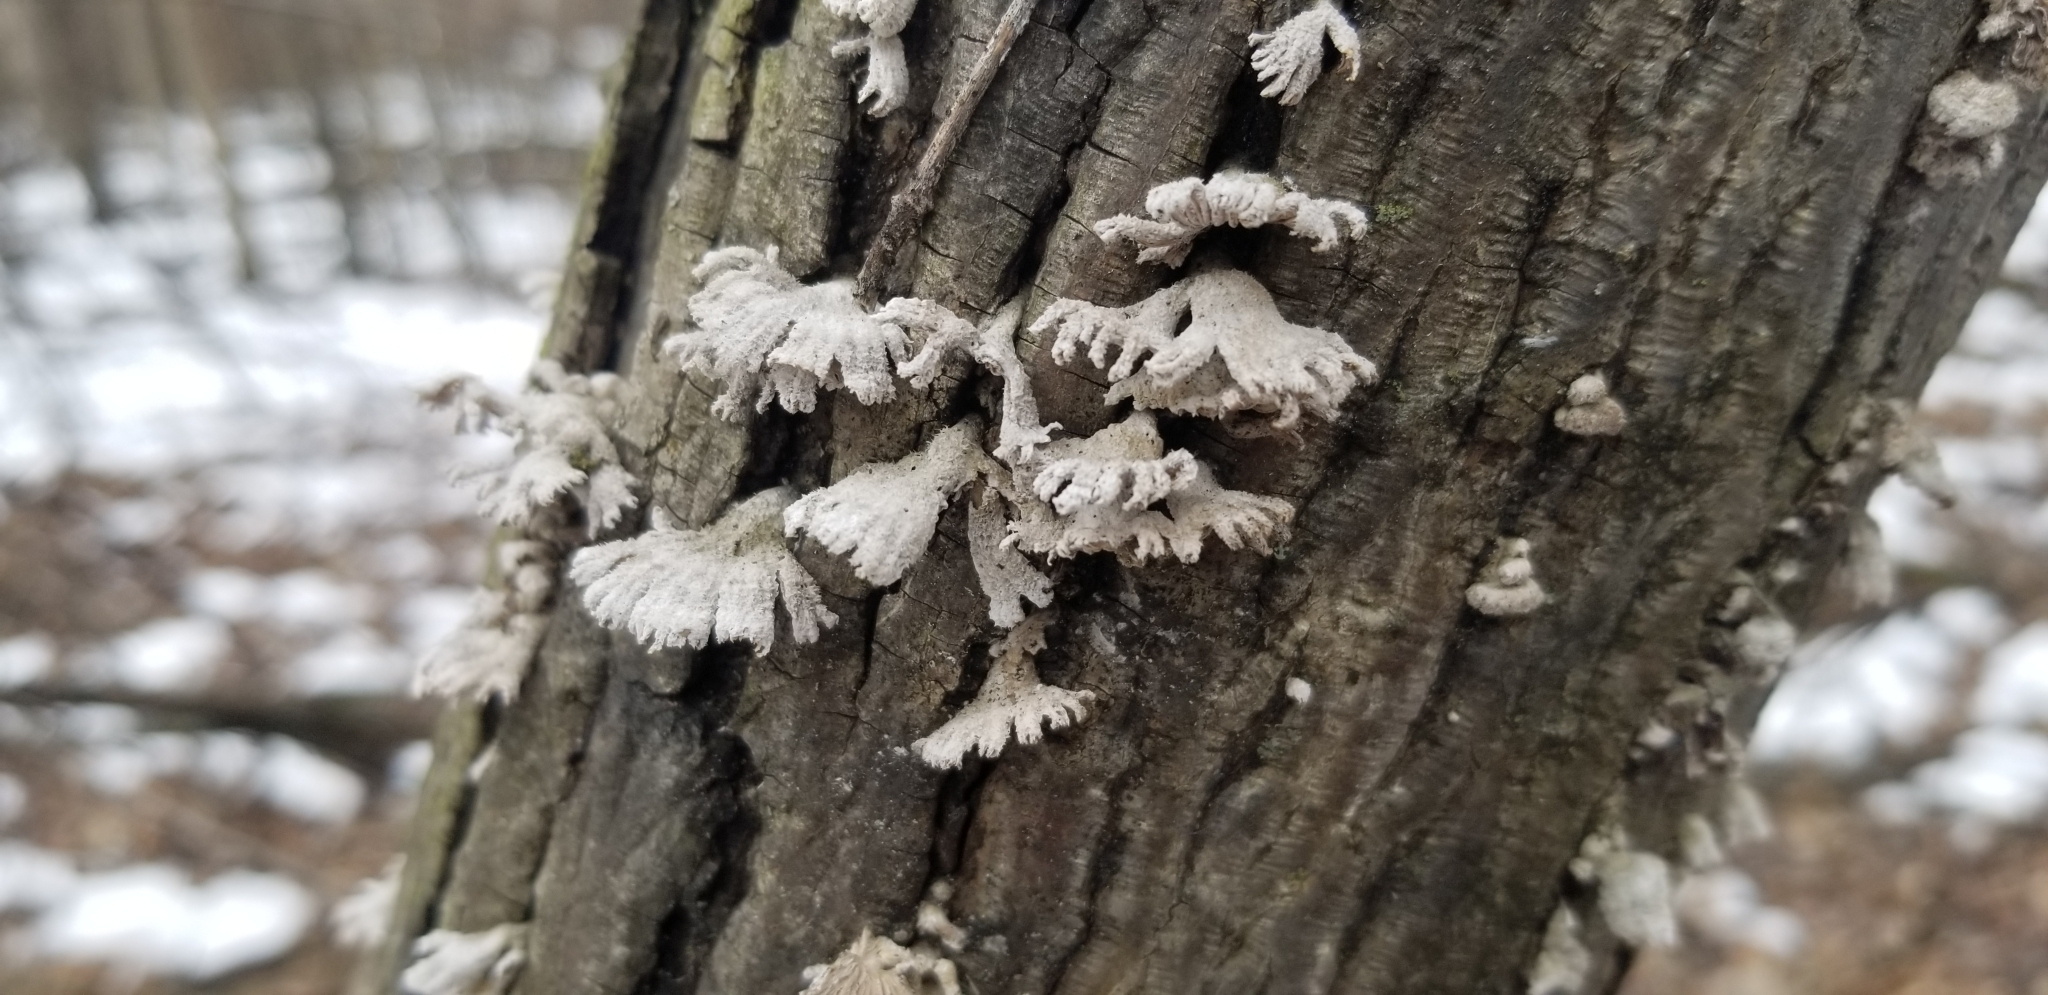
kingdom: Fungi
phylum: Basidiomycota
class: Agaricomycetes
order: Agaricales
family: Schizophyllaceae
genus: Schizophyllum
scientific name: Schizophyllum commune
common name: Common porecrust
